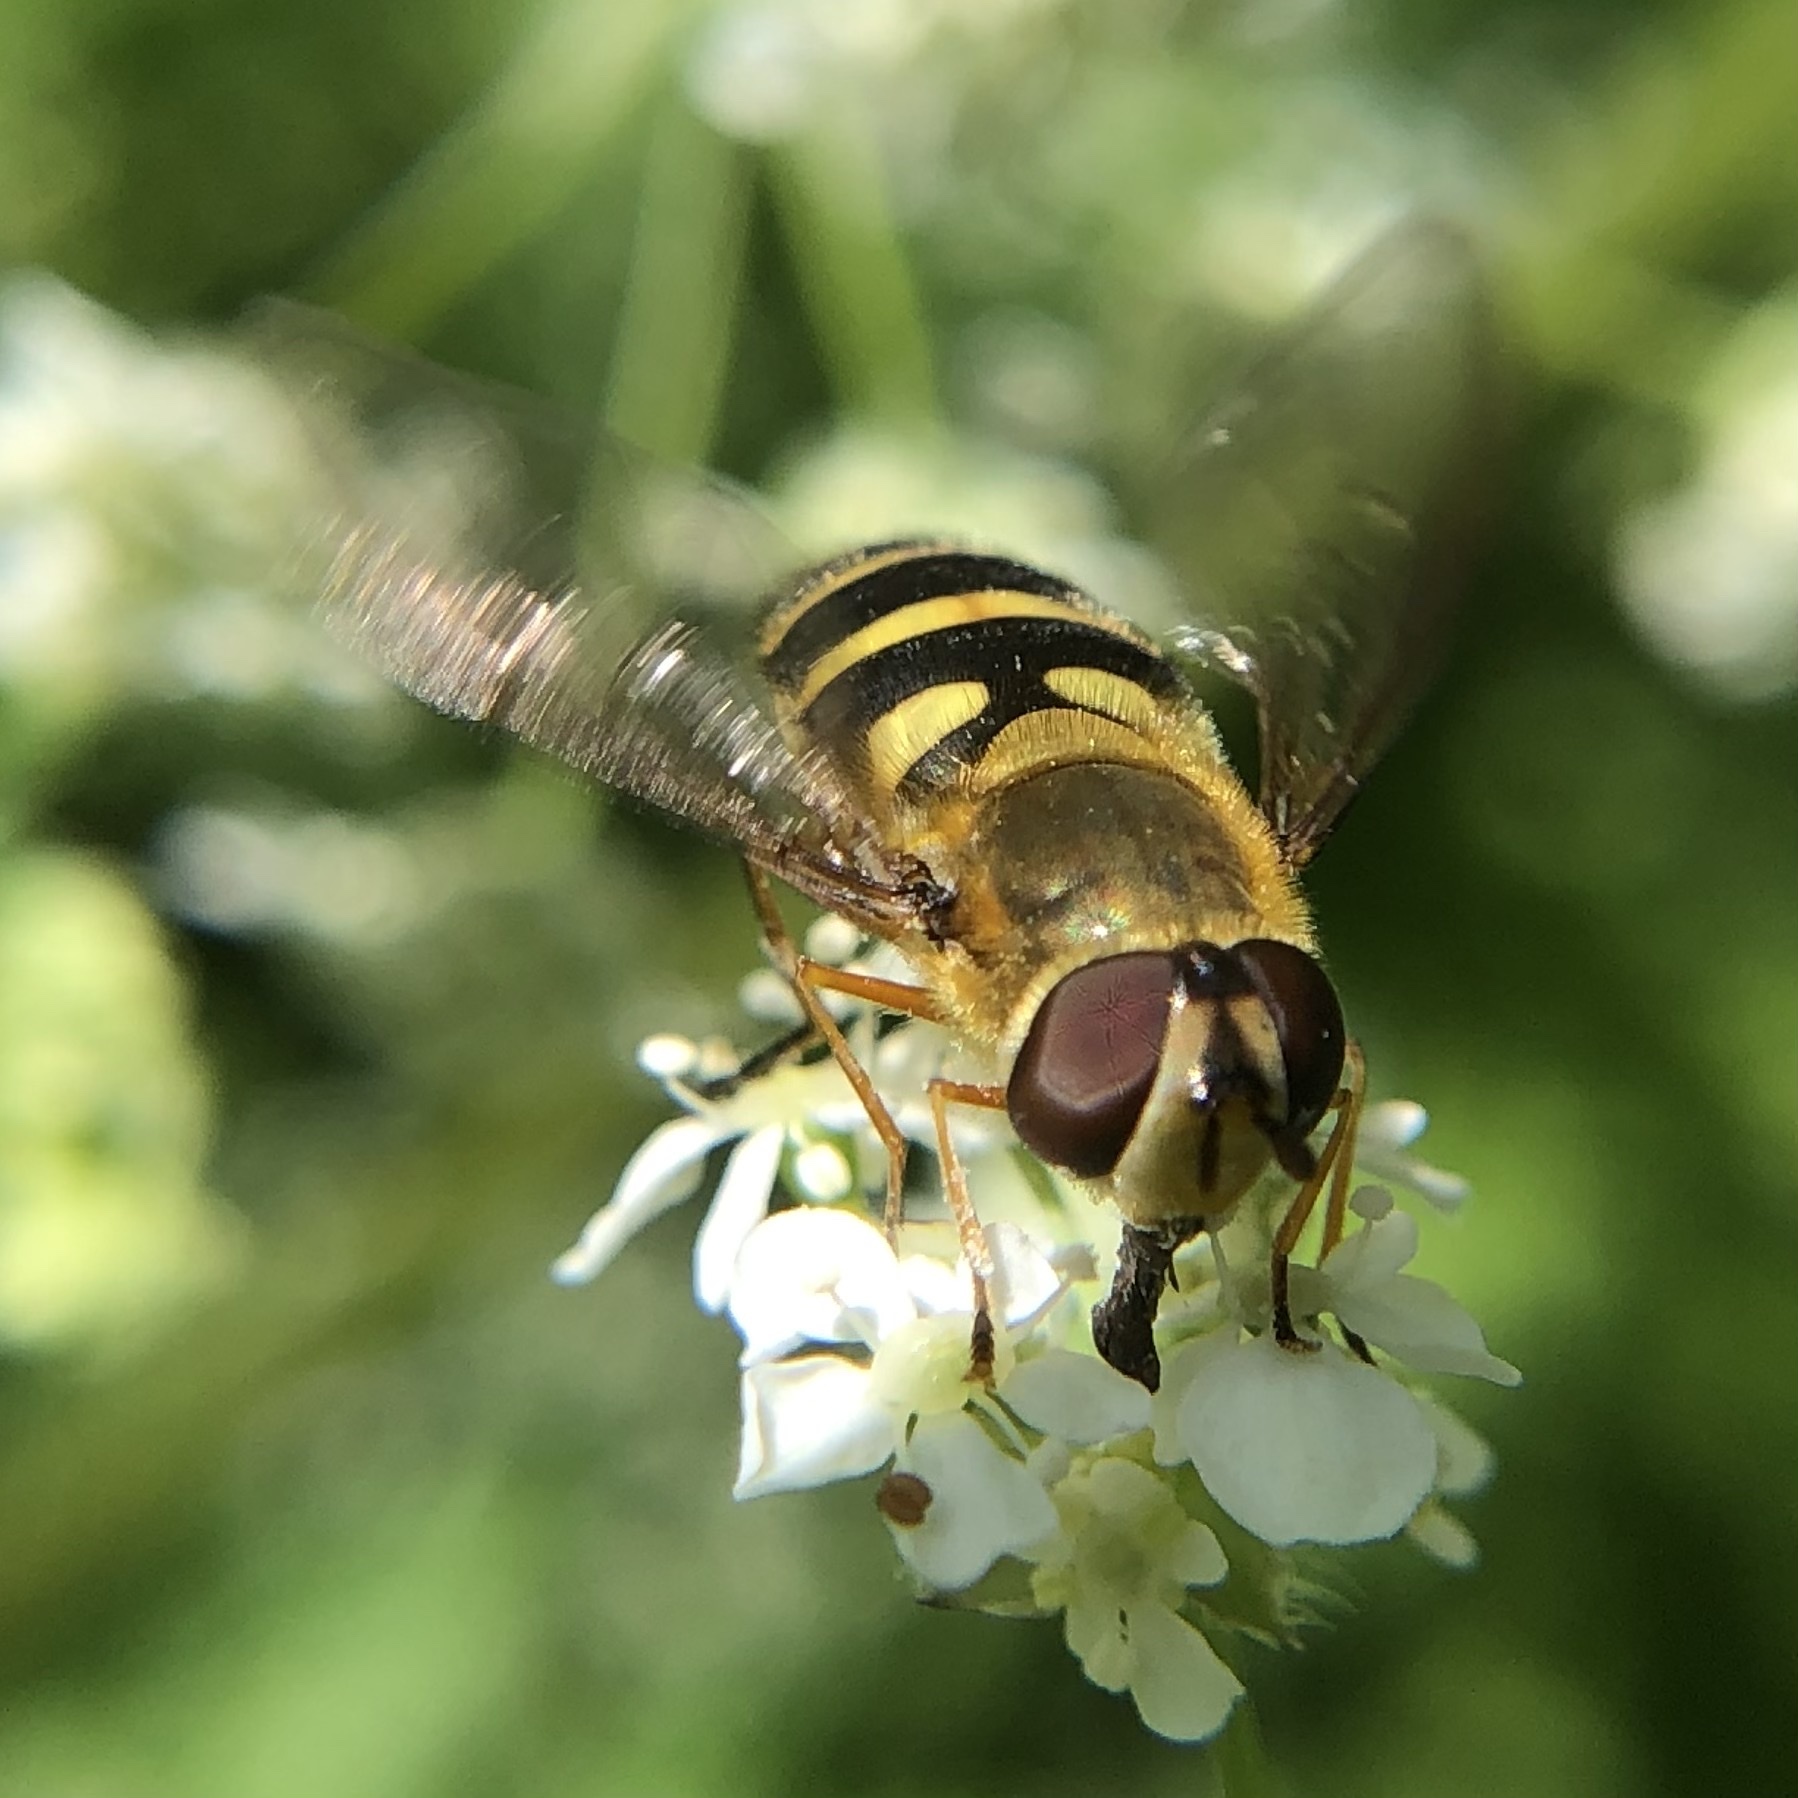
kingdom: Animalia
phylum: Arthropoda
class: Insecta
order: Diptera
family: Syrphidae
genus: Syrphus
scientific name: Syrphus ribesii
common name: Common flower fly
